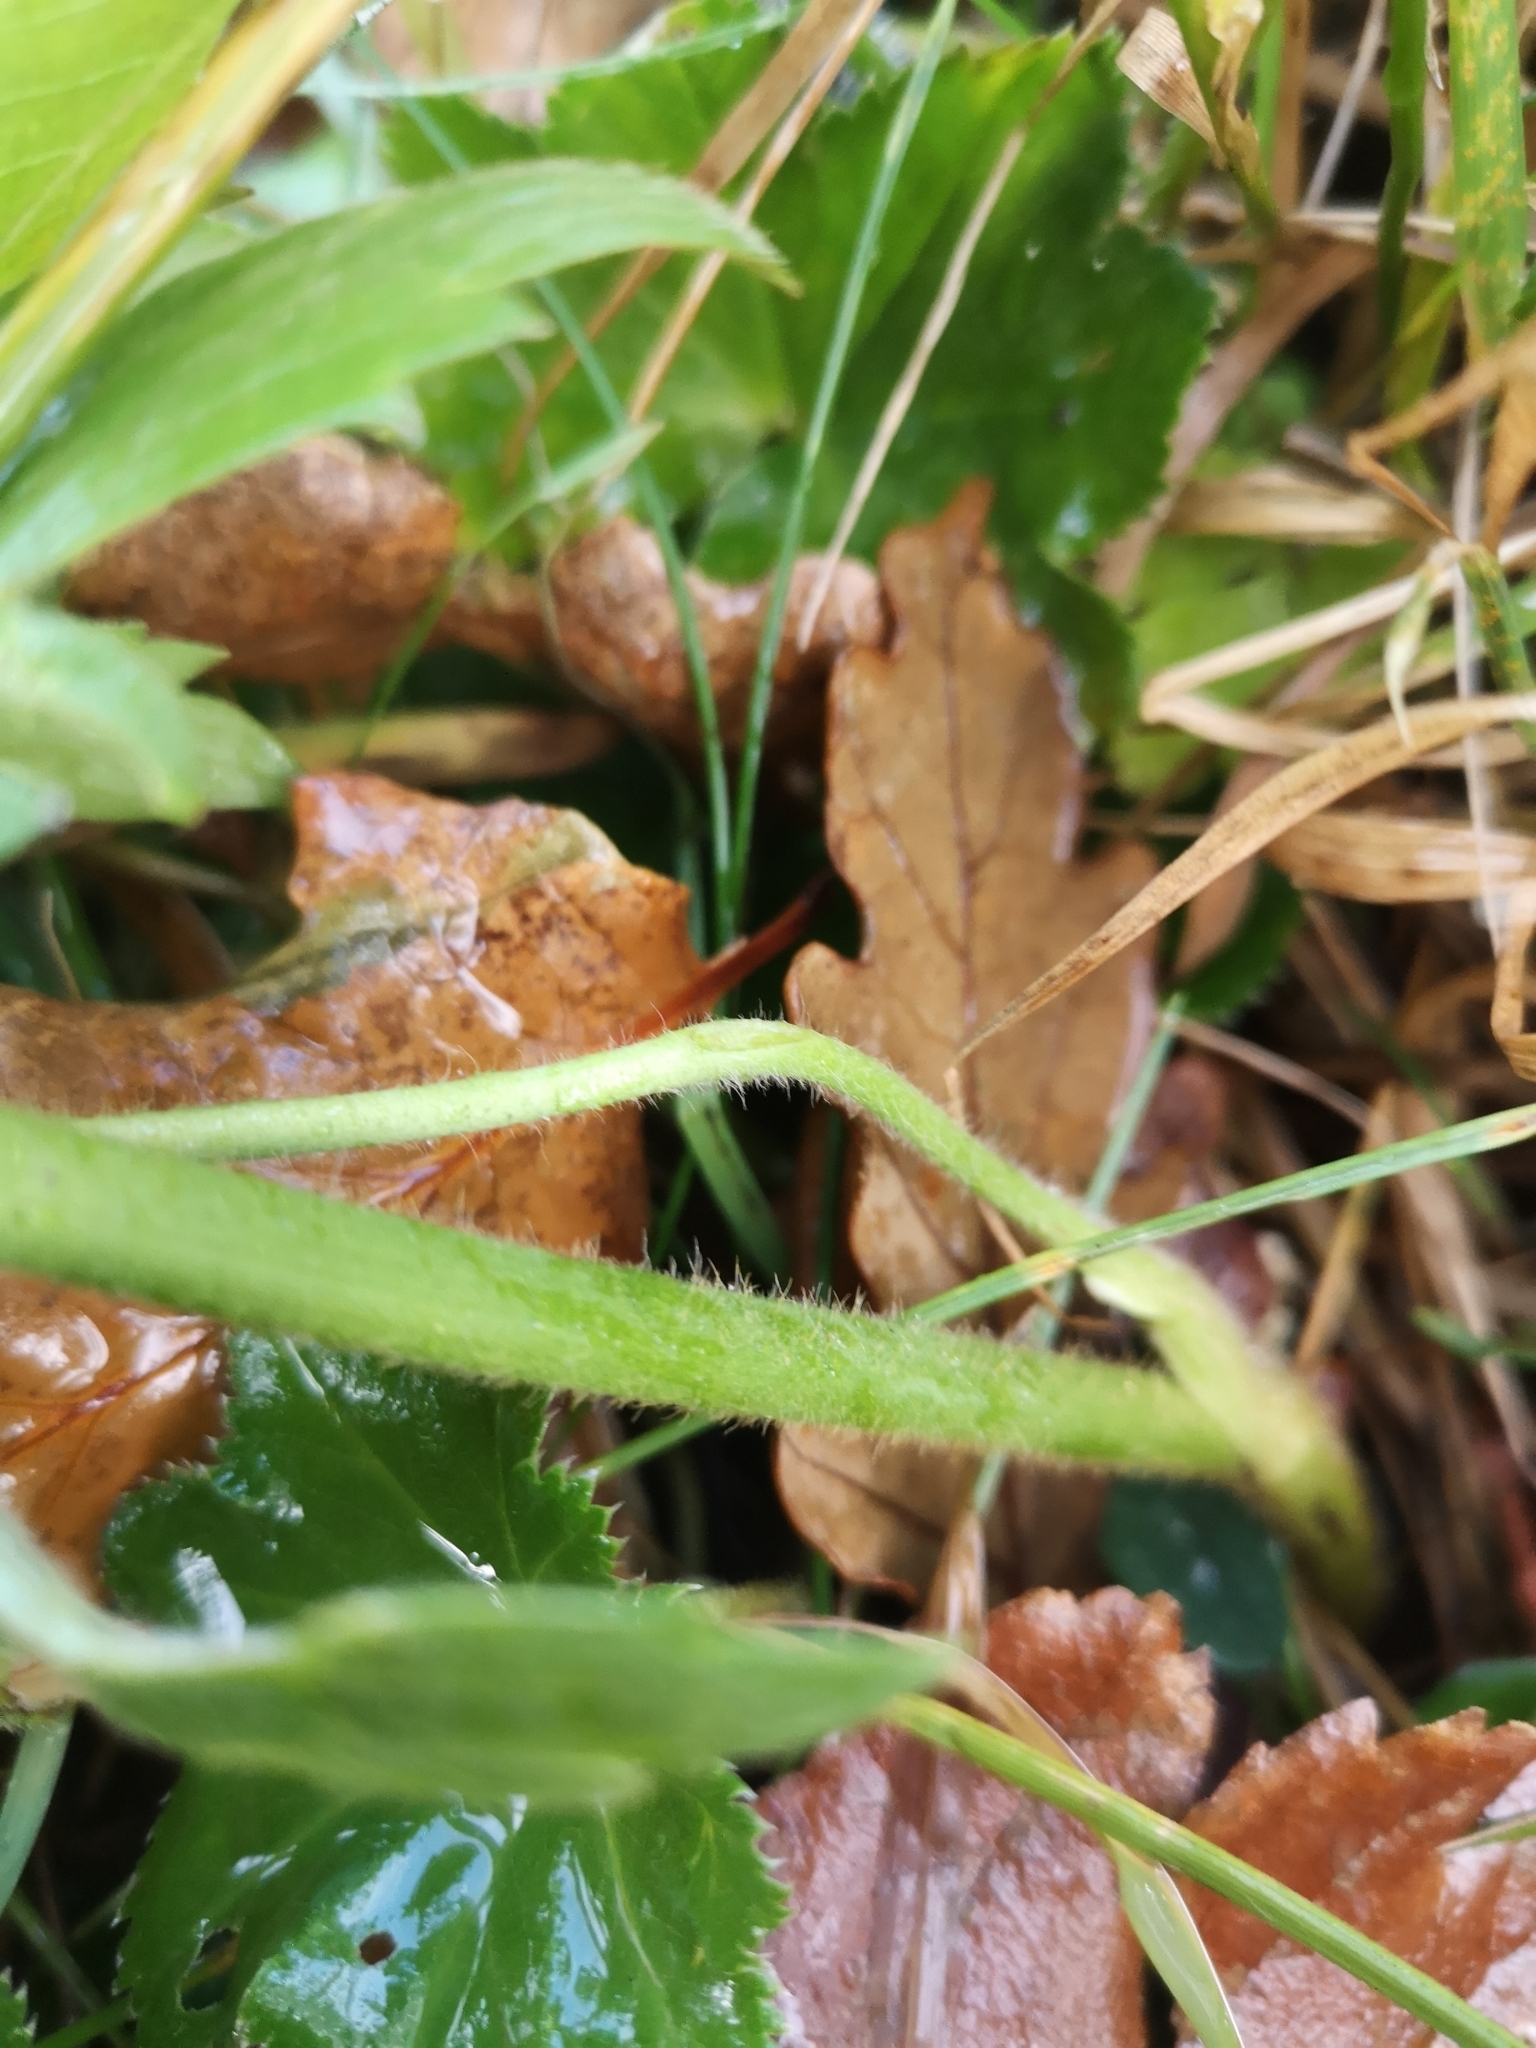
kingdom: Plantae
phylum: Tracheophyta
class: Magnoliopsida
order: Ranunculales
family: Ranunculaceae
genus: Ranunculus
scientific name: Ranunculus acris
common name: Meadow buttercup
